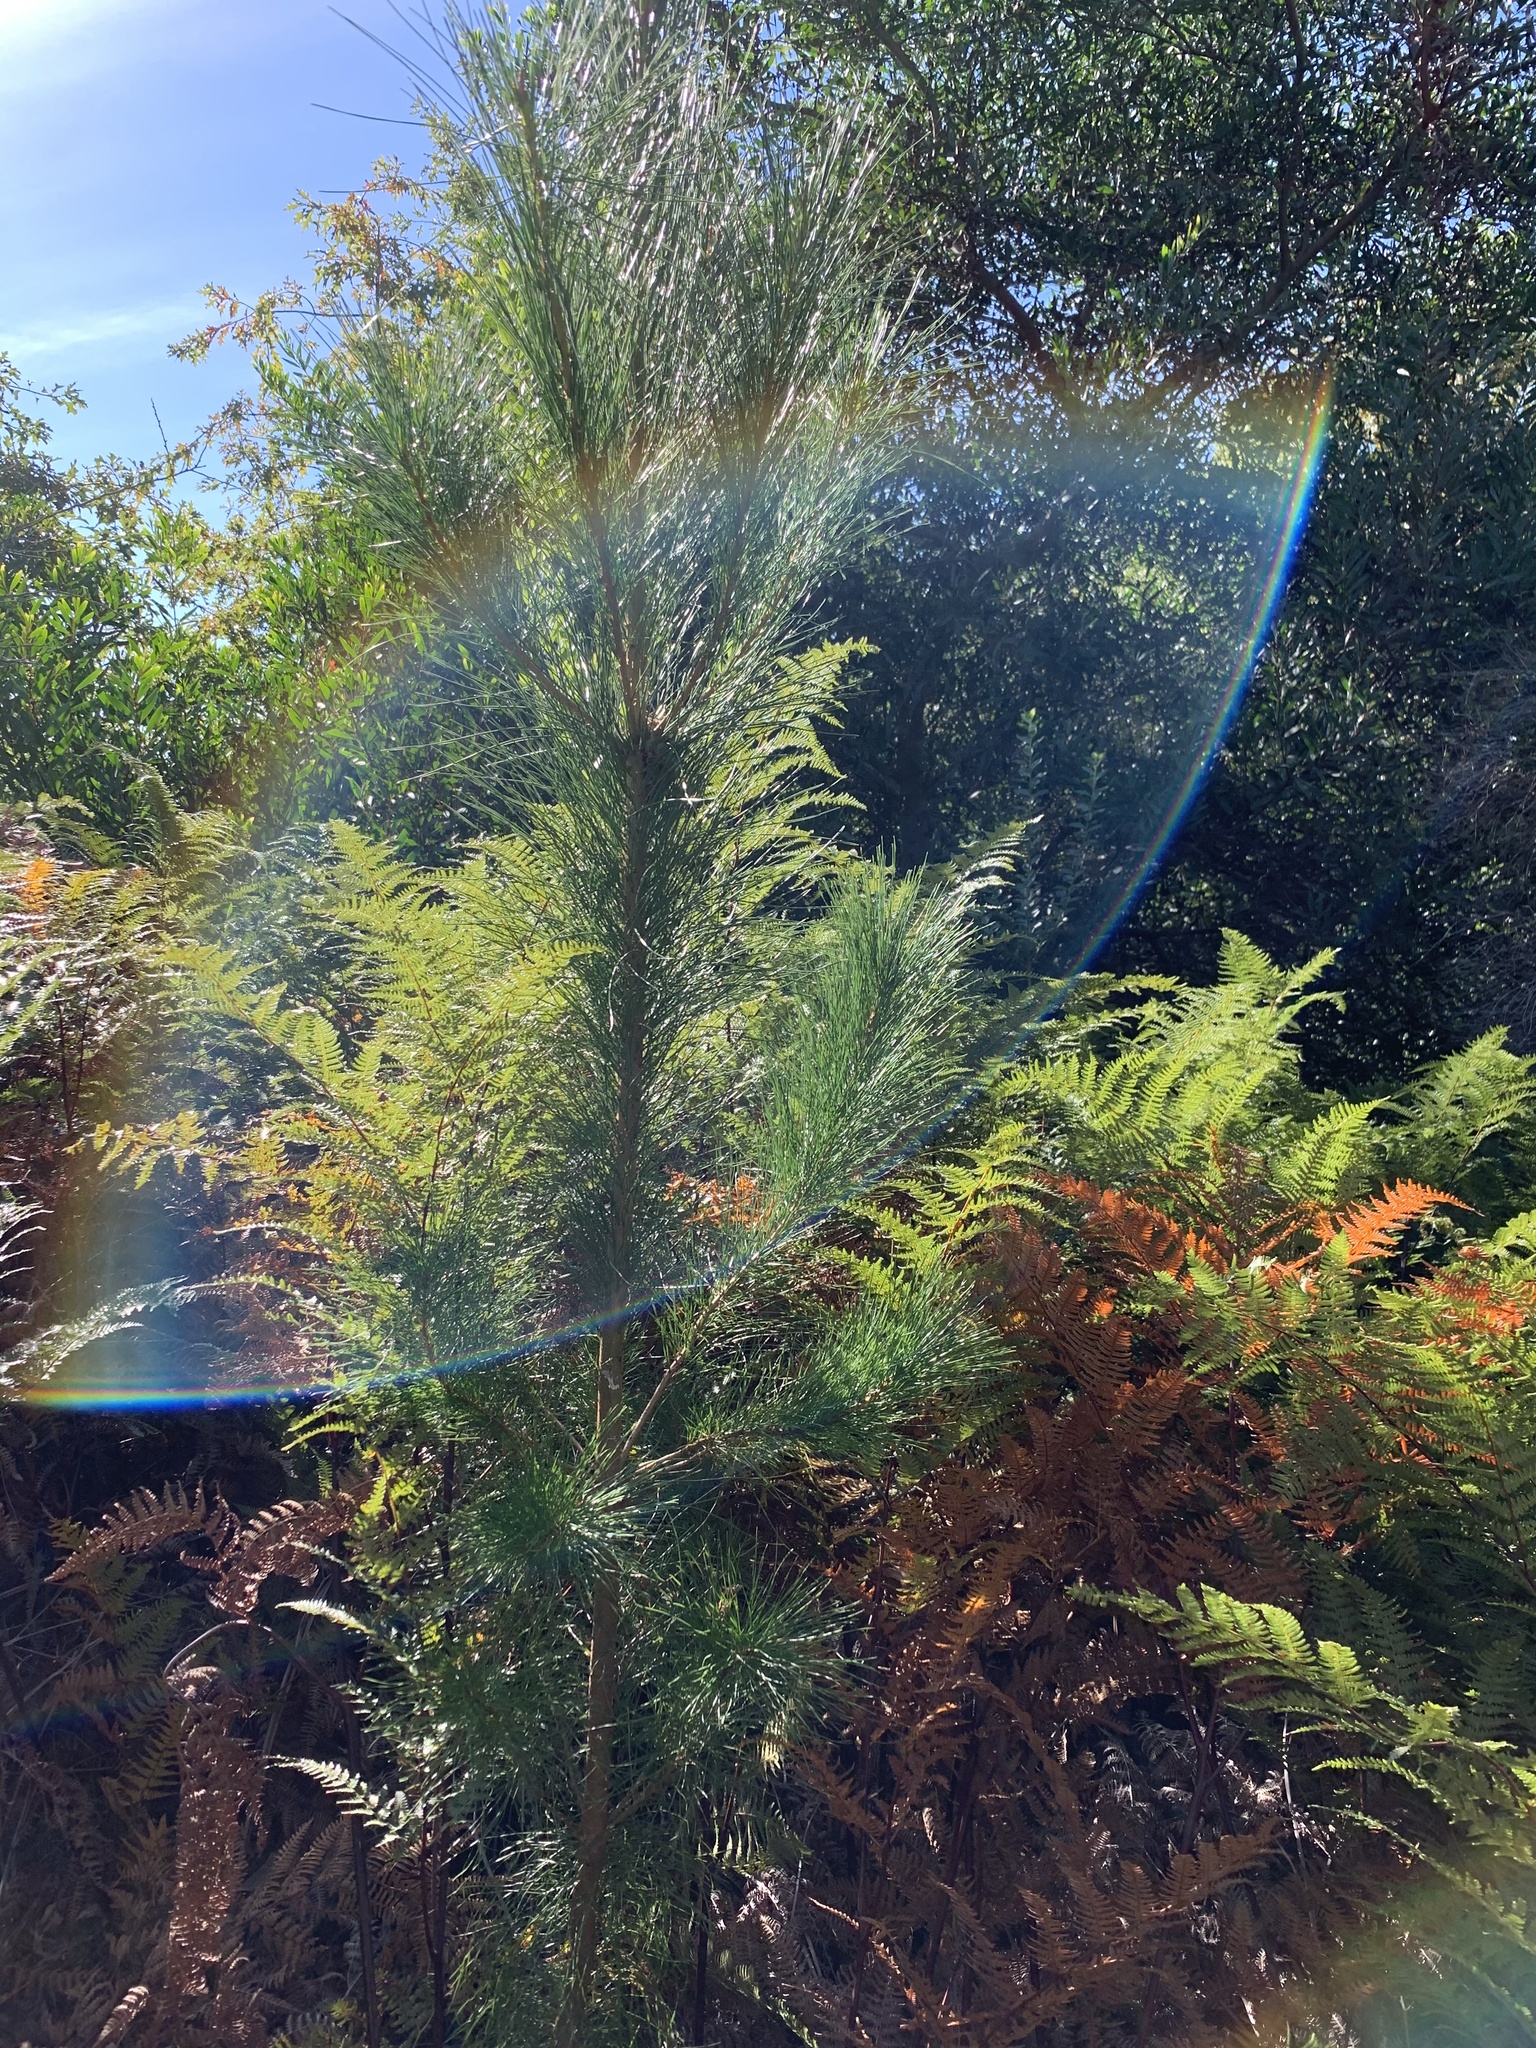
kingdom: Plantae
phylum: Tracheophyta
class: Pinopsida
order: Pinales
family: Pinaceae
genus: Pinus
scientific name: Pinus radiata
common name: Monterey pine
